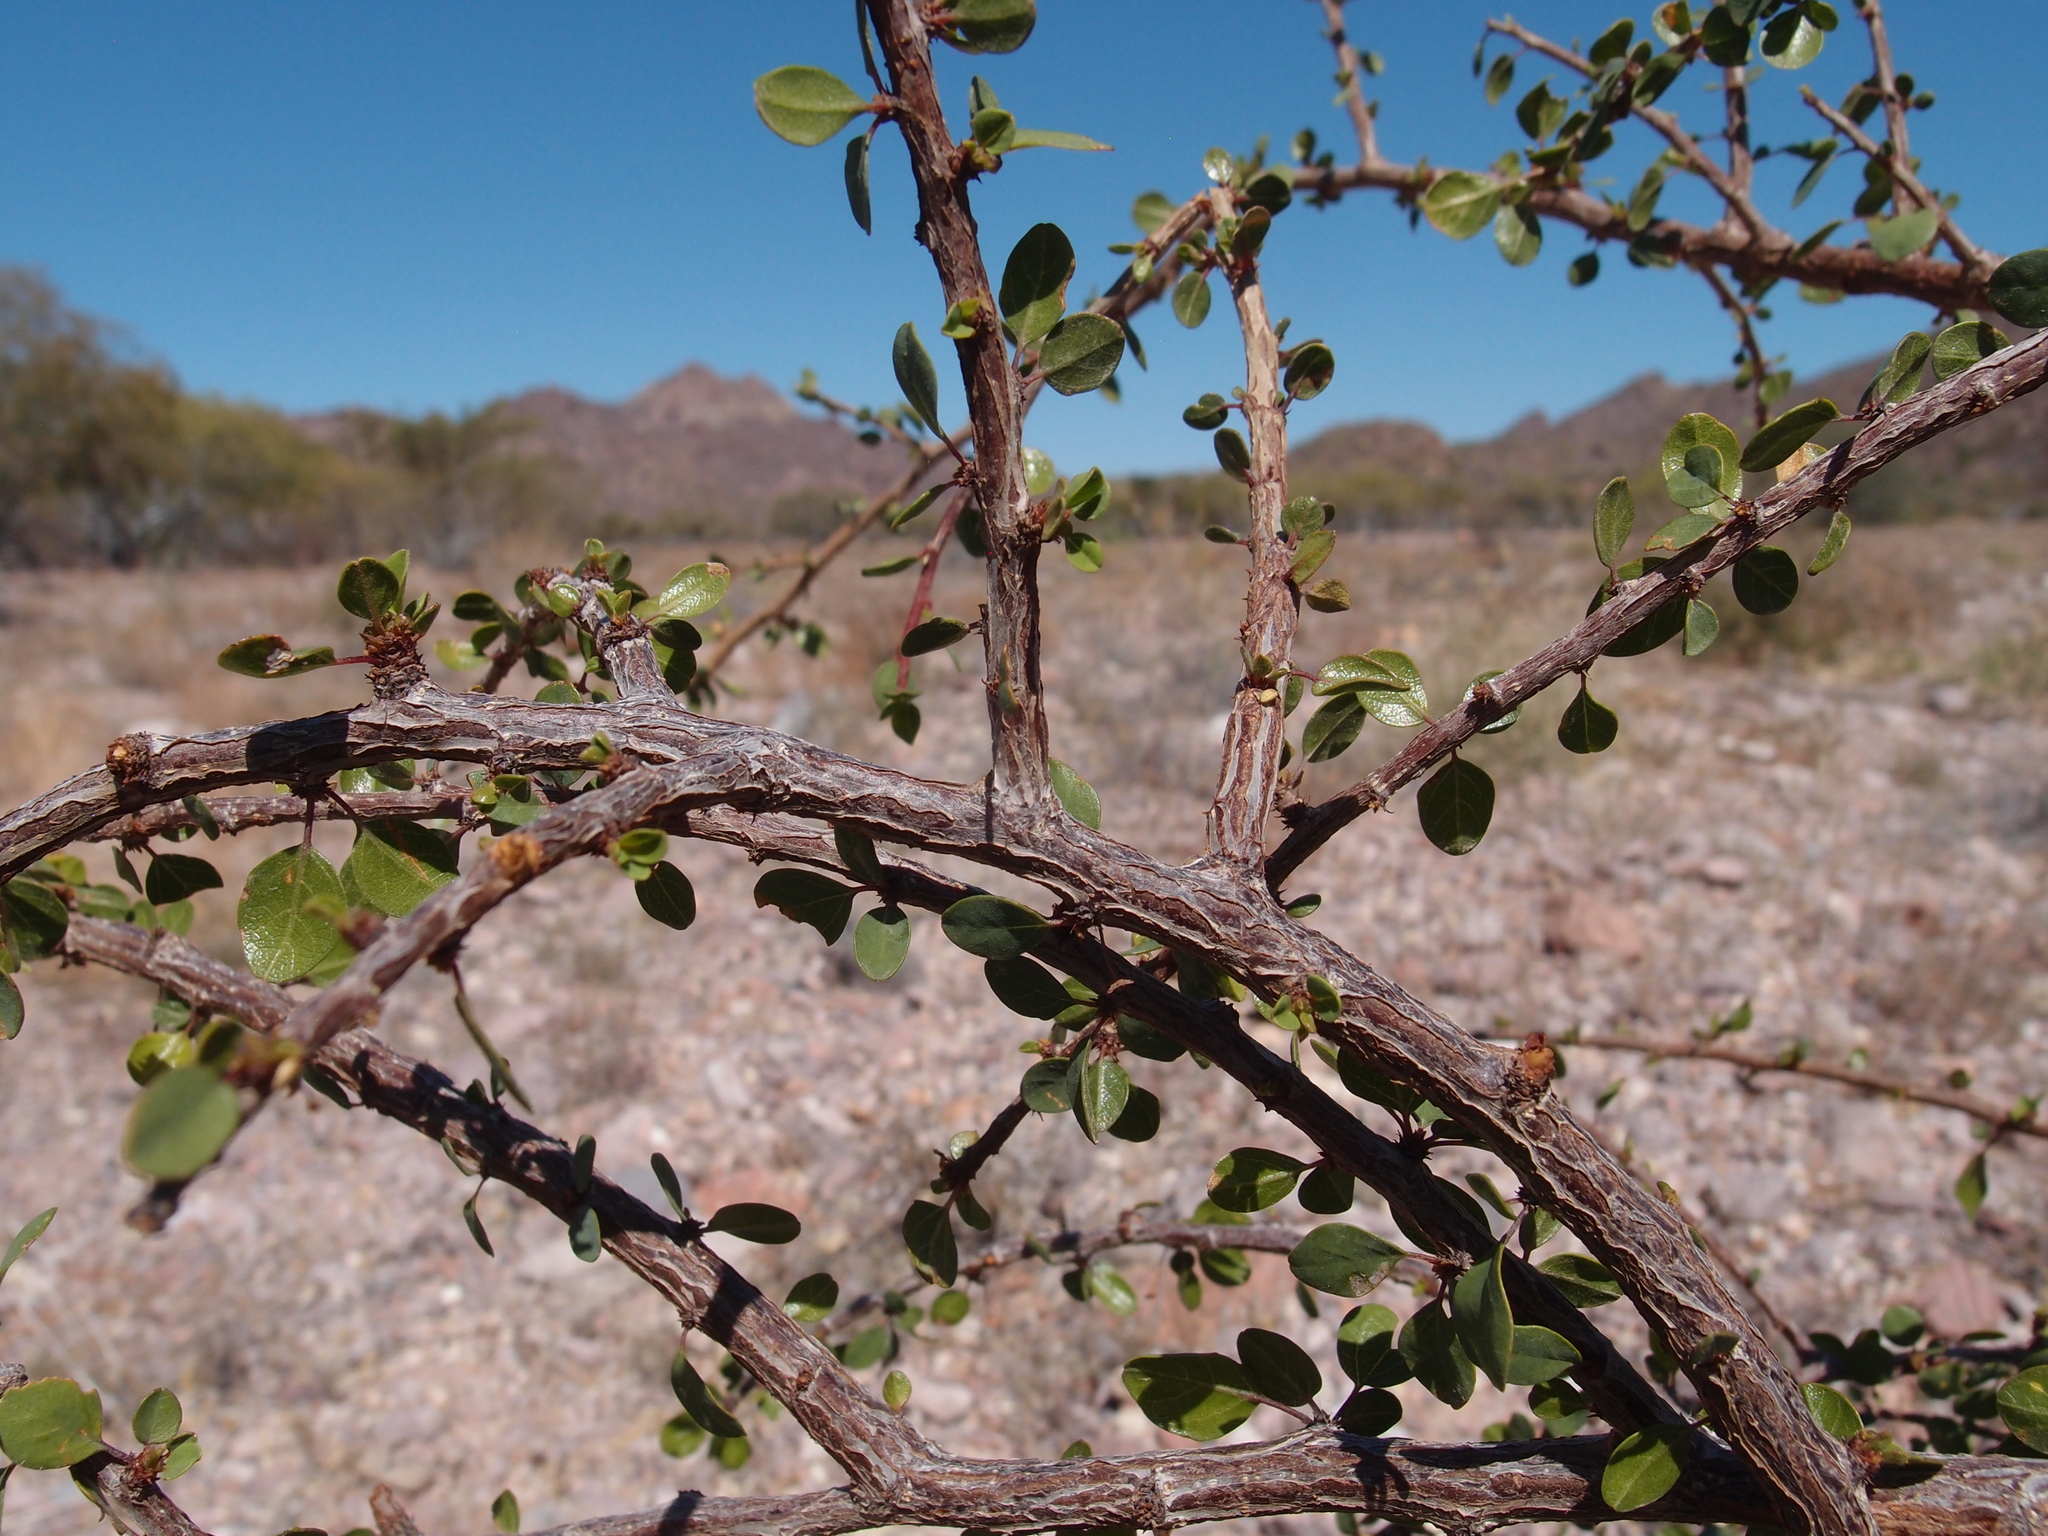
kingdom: Plantae
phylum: Tracheophyta
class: Magnoliopsida
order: Rosales
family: Rhamnaceae
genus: Colubrina
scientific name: Colubrina viridis
